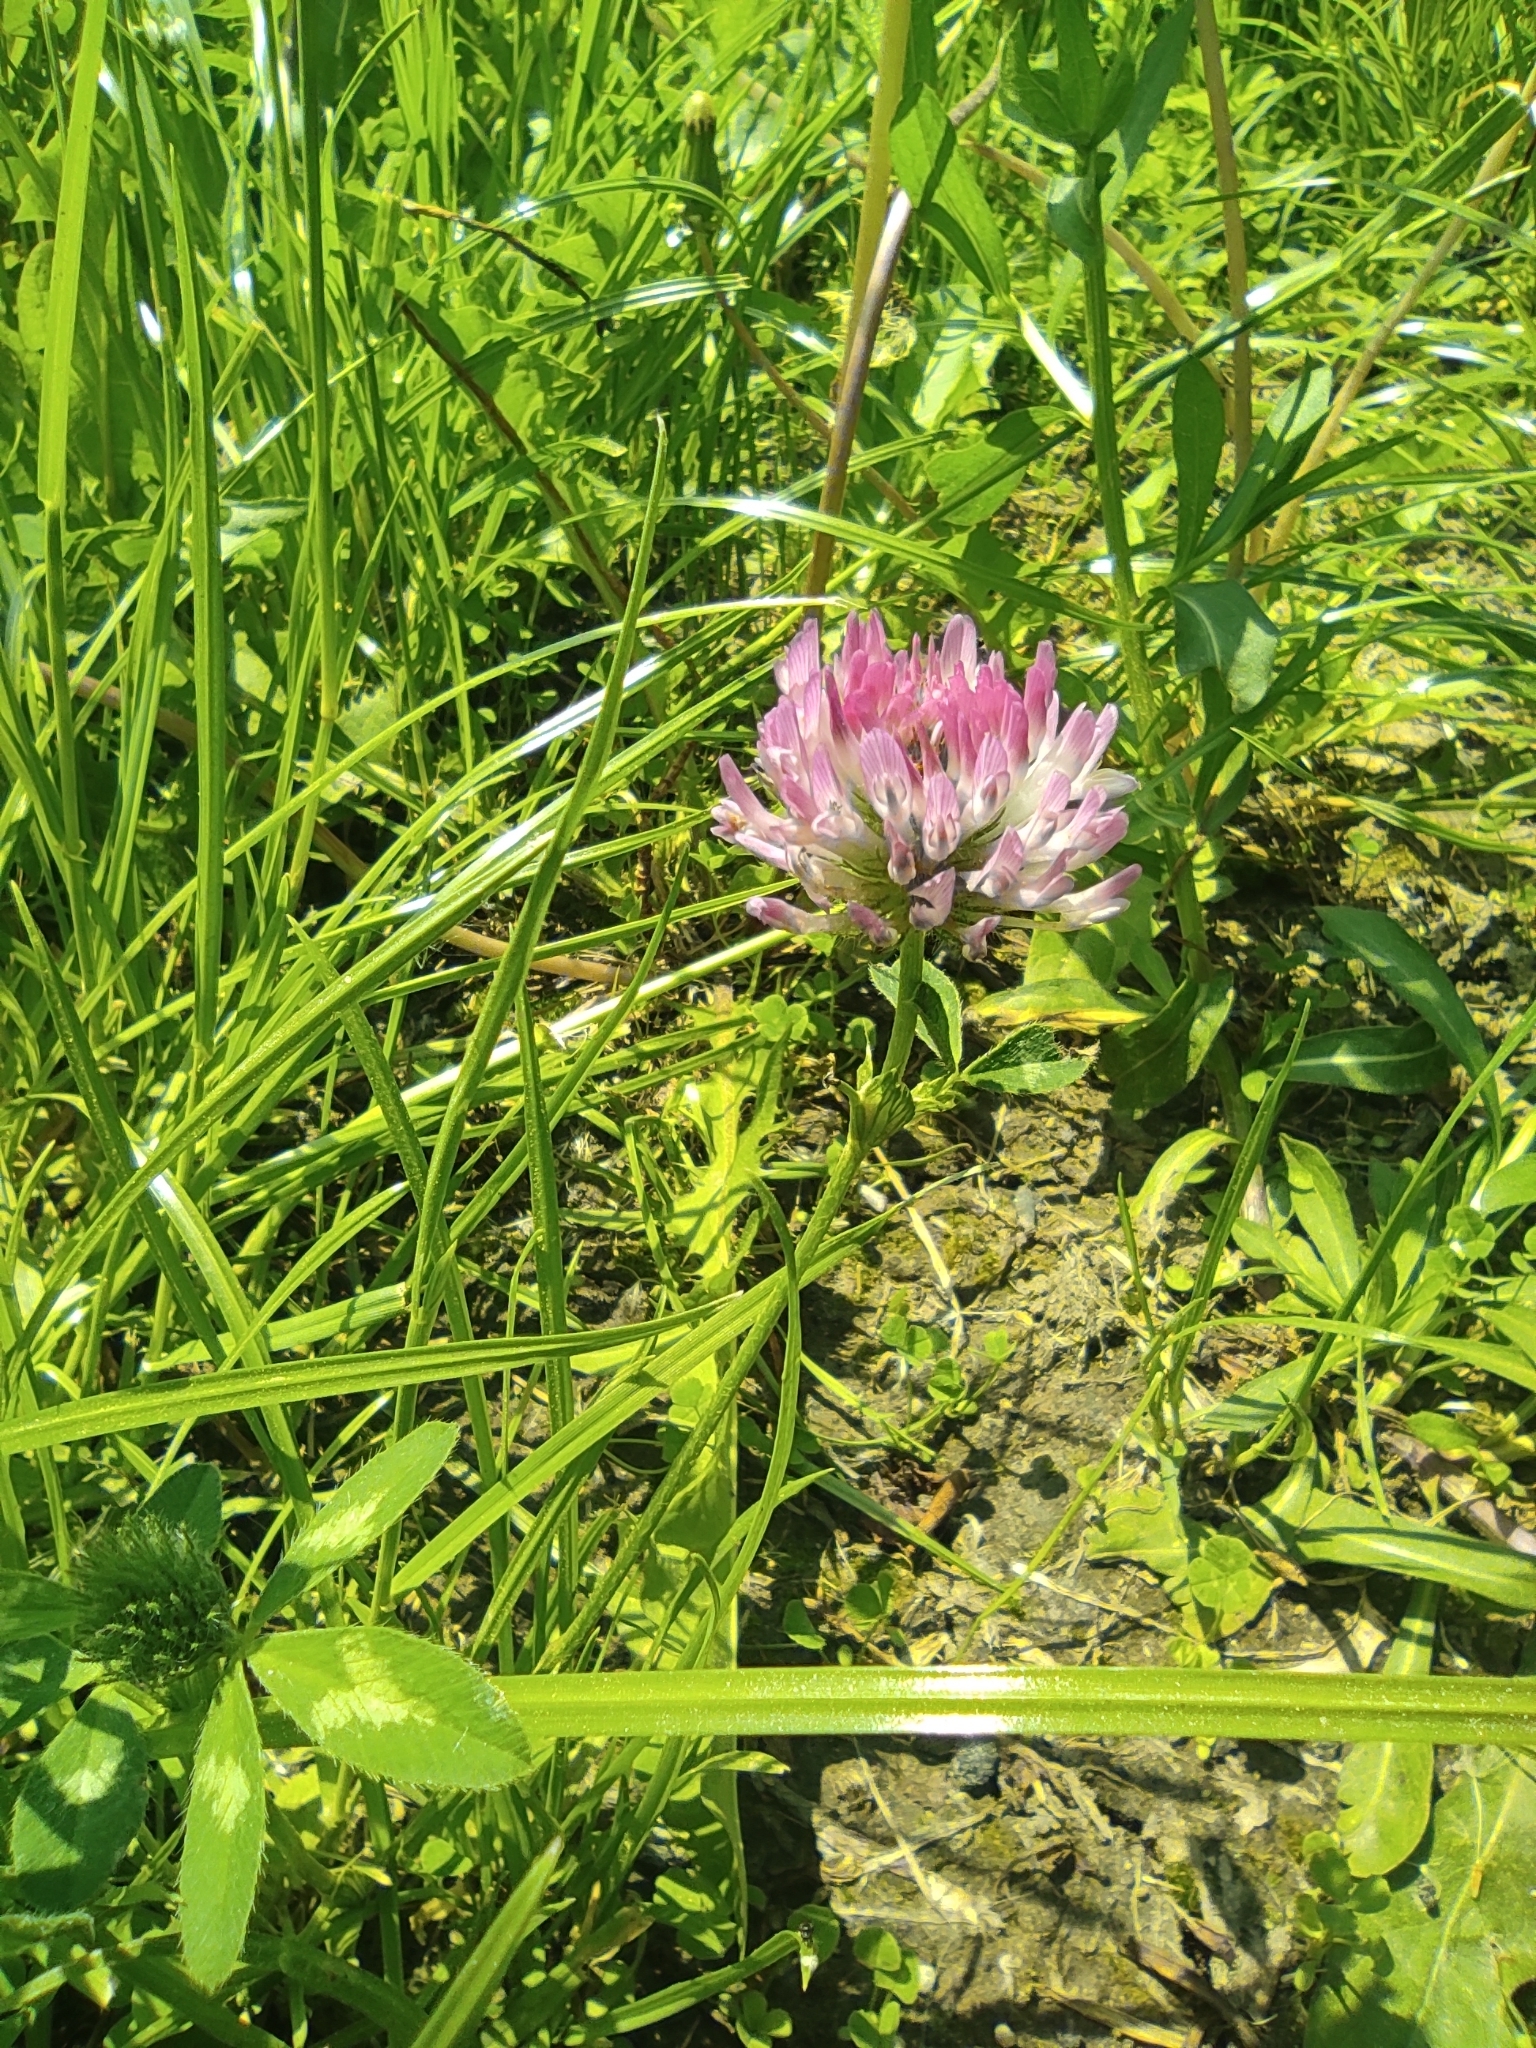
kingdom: Plantae
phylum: Tracheophyta
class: Magnoliopsida
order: Fabales
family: Fabaceae
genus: Trifolium
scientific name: Trifolium pratense
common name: Red clover
